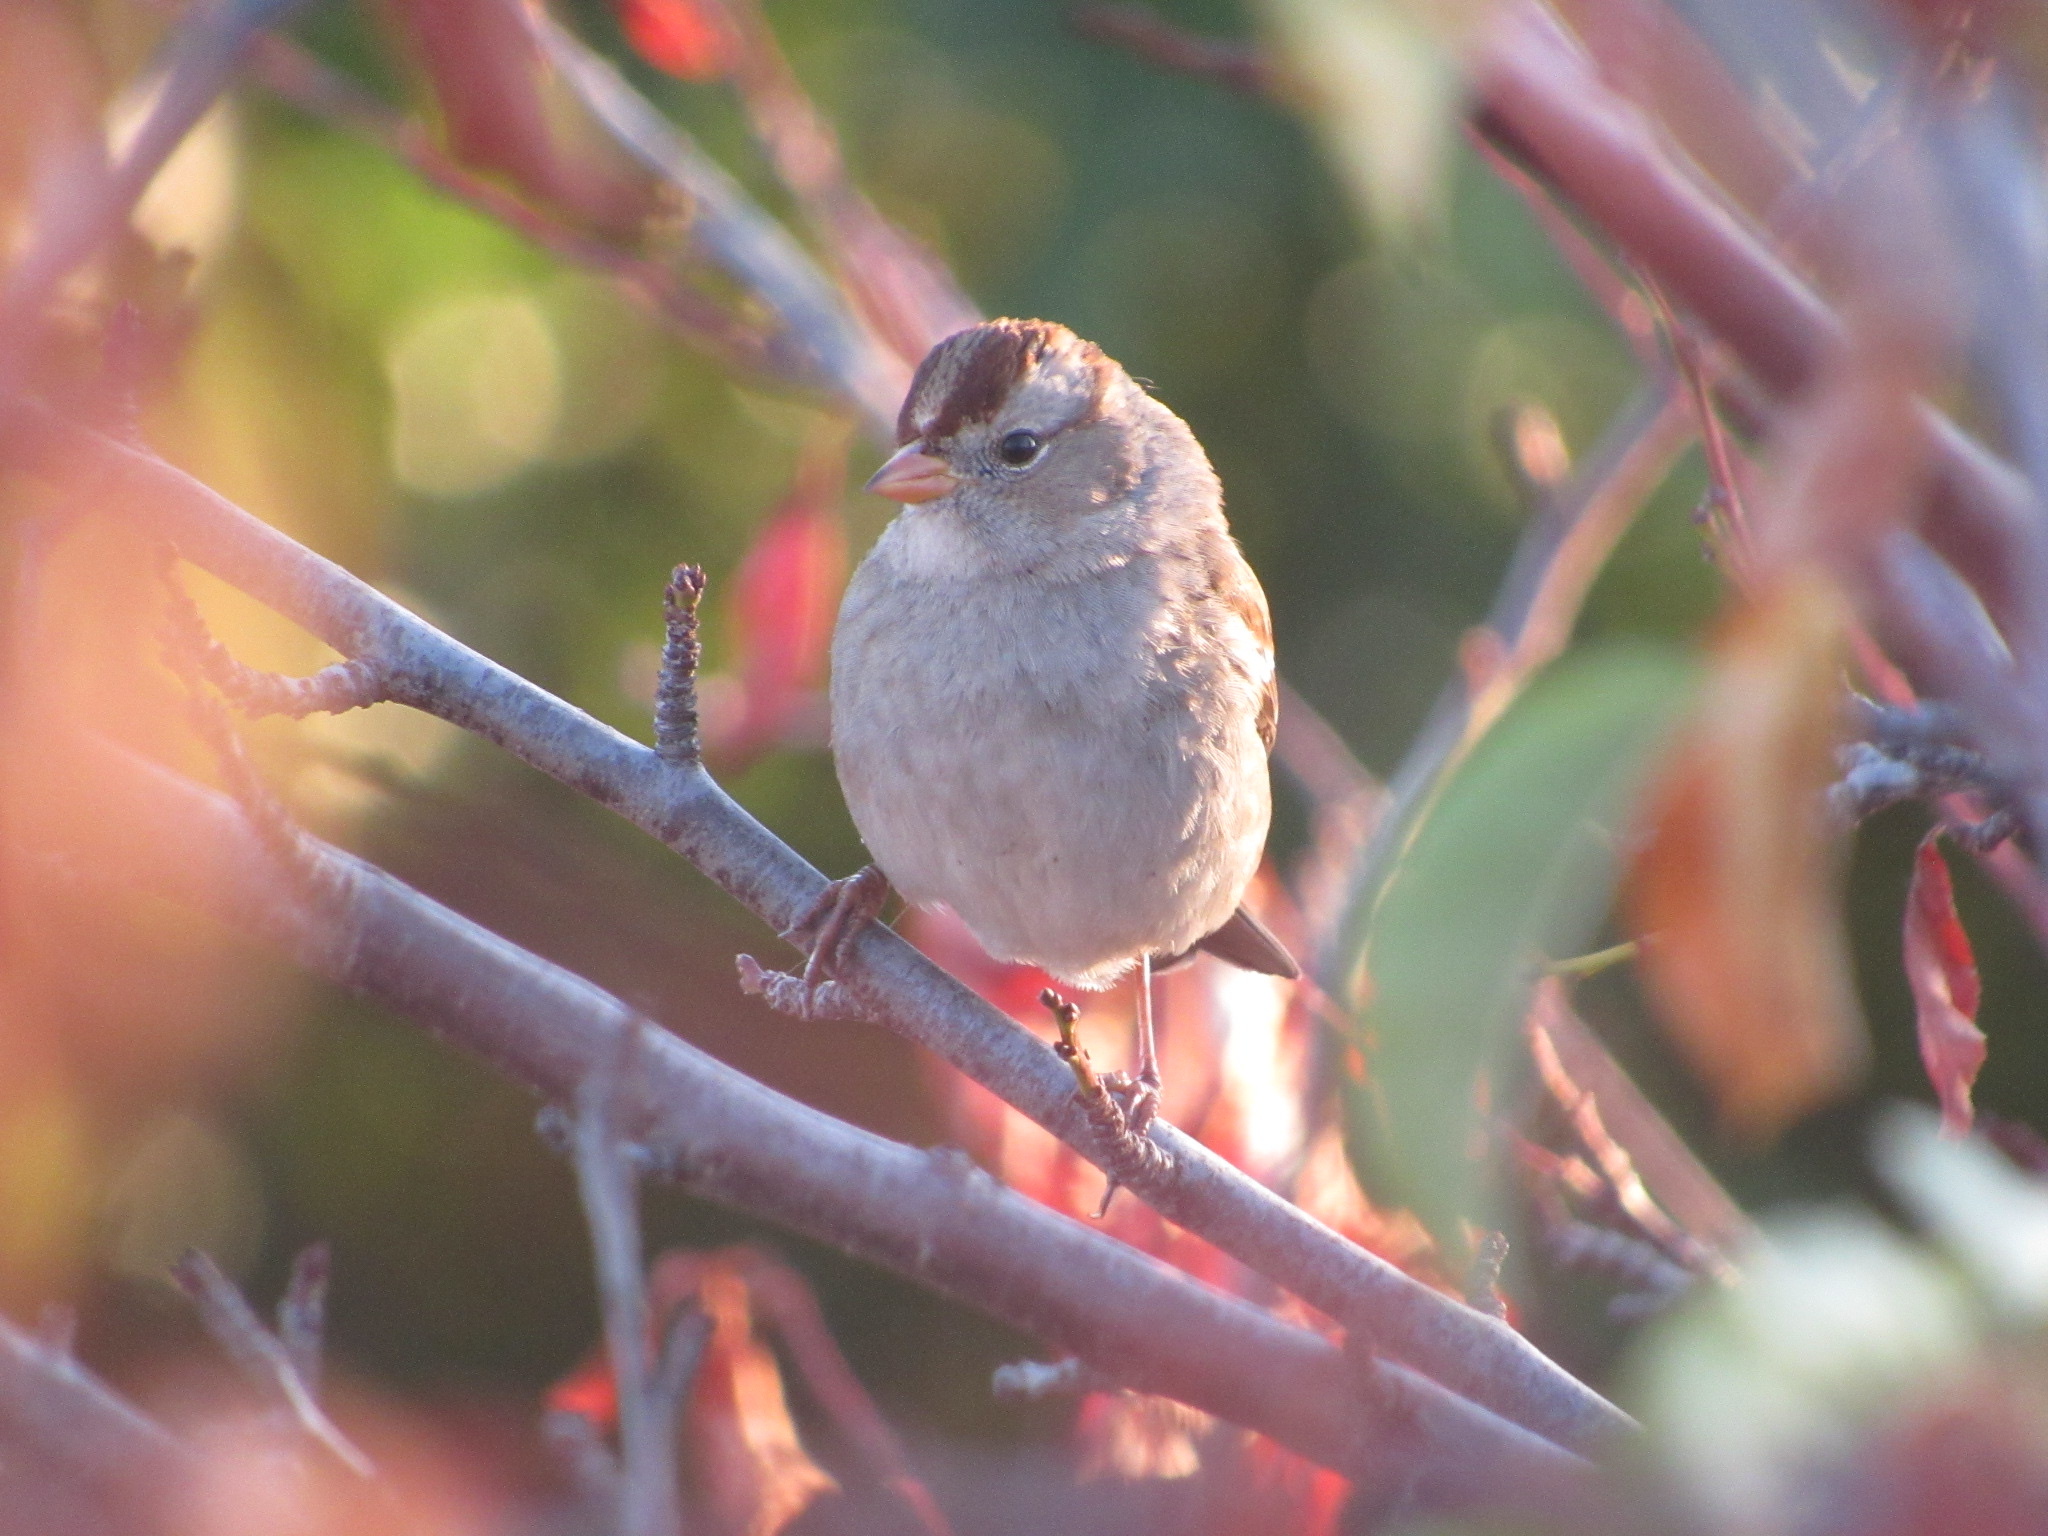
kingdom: Animalia
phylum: Chordata
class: Aves
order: Passeriformes
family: Passerellidae
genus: Zonotrichia
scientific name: Zonotrichia leucophrys
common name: White-crowned sparrow
